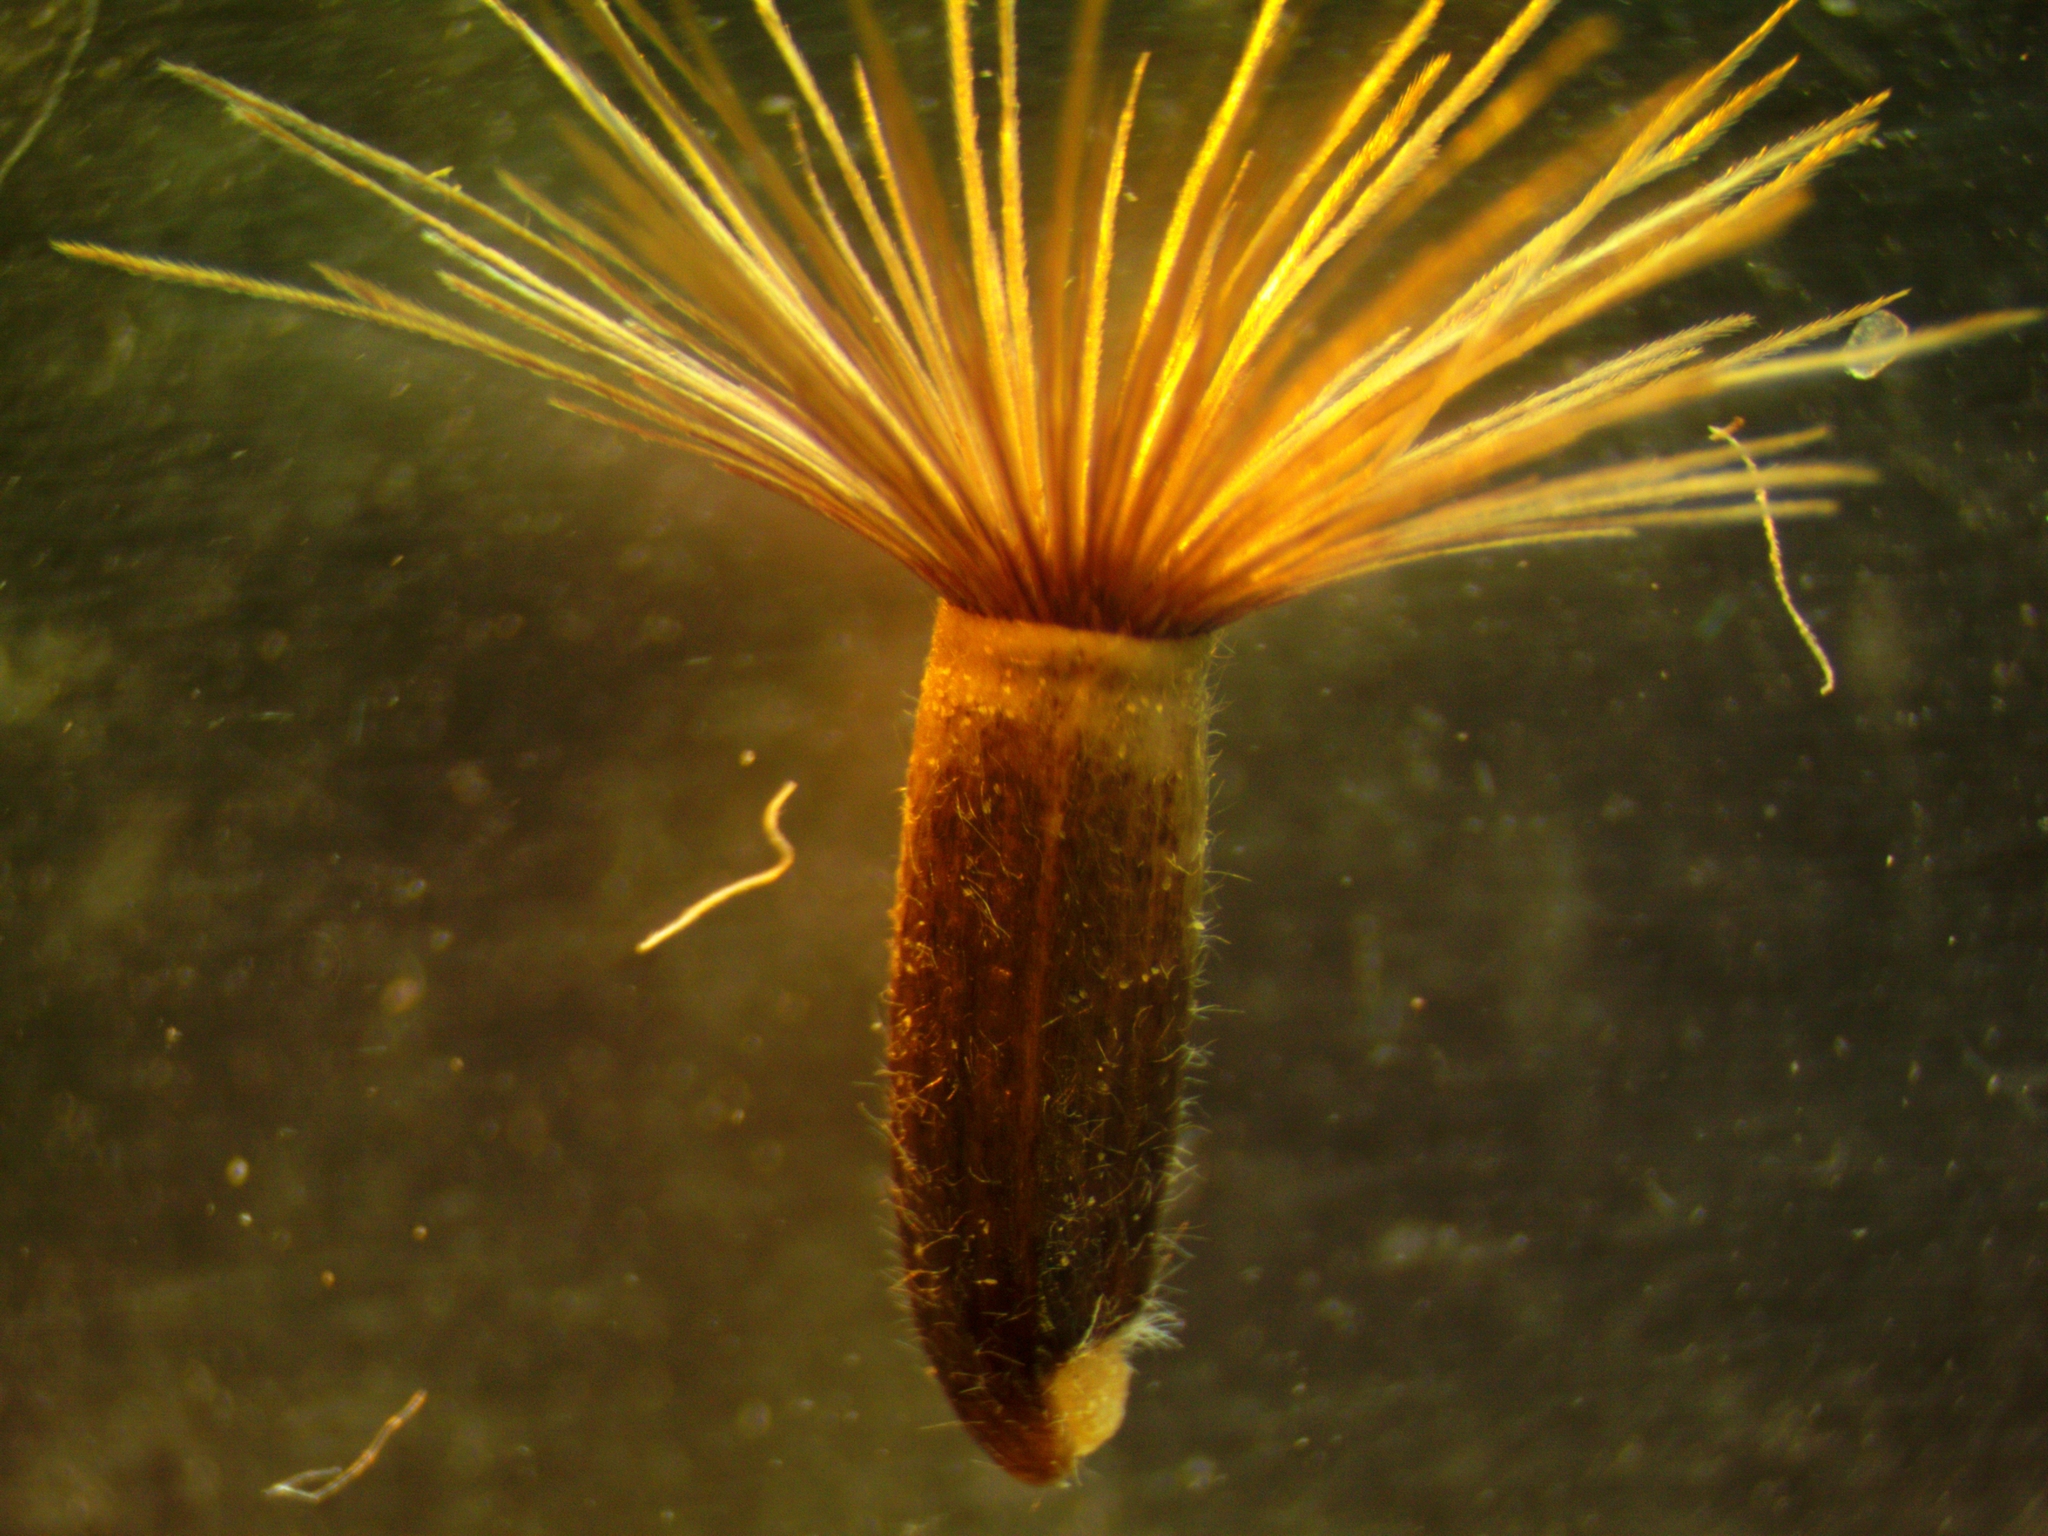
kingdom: Plantae
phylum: Tracheophyta
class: Magnoliopsida
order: Asterales
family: Asteraceae
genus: Centaurea
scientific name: Centaurea scabiosa
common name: Greater knapweed
